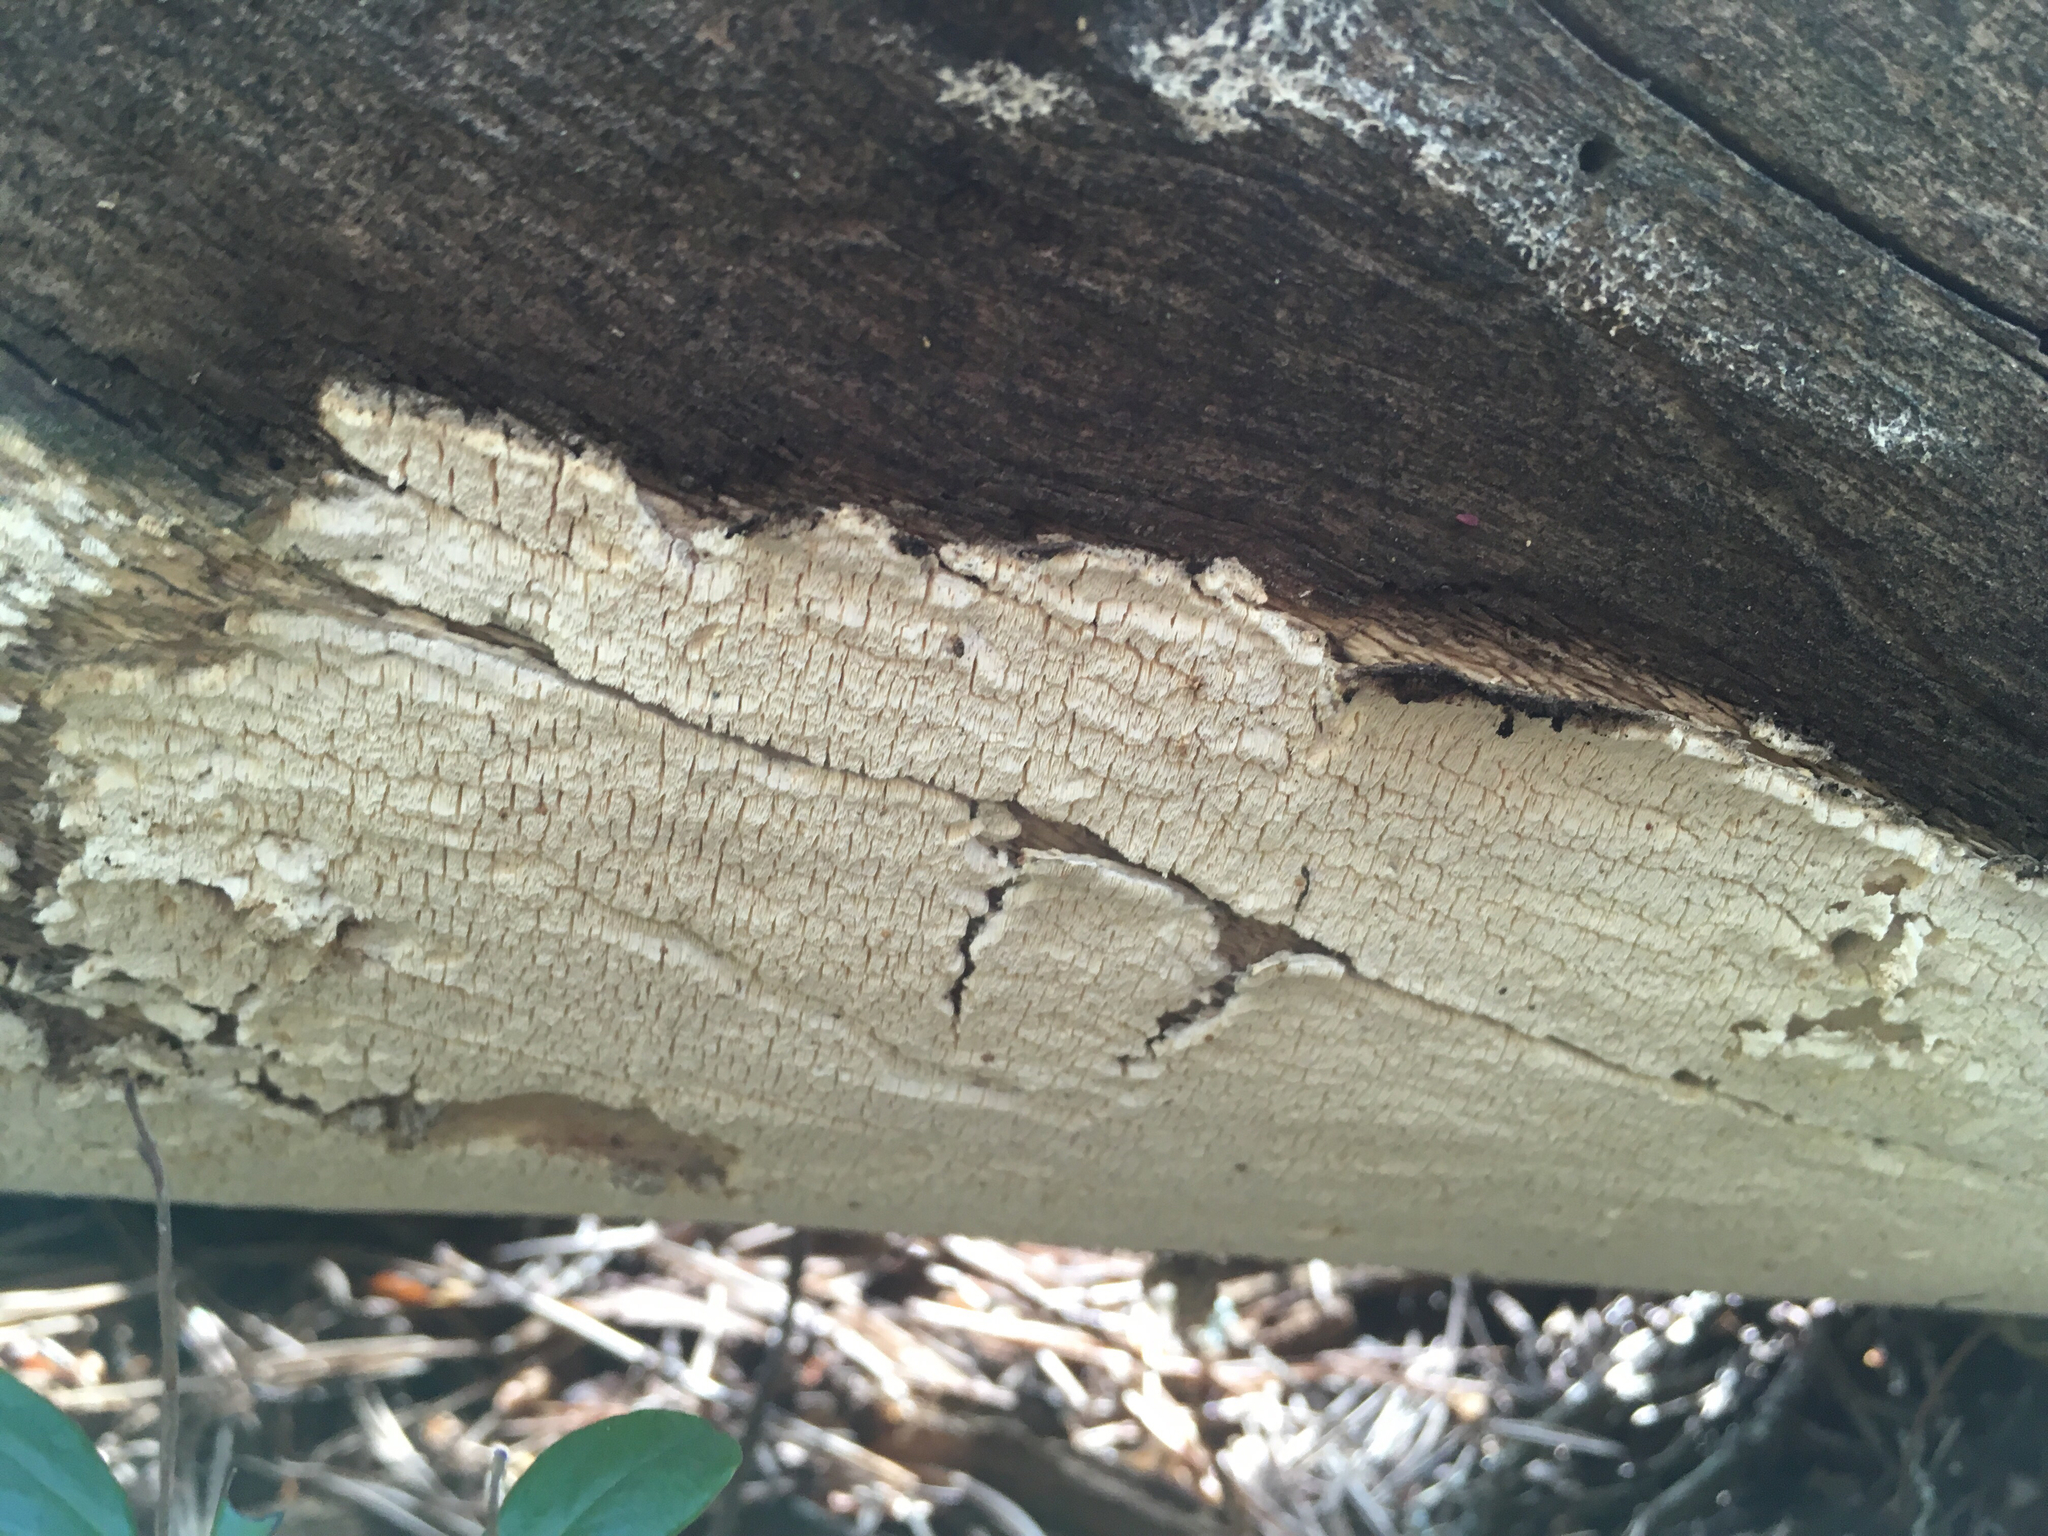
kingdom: Fungi
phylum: Basidiomycota
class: Agaricomycetes
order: Polyporales
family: Fomitopsidaceae
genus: Daedalea
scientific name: Daedalea xantha
